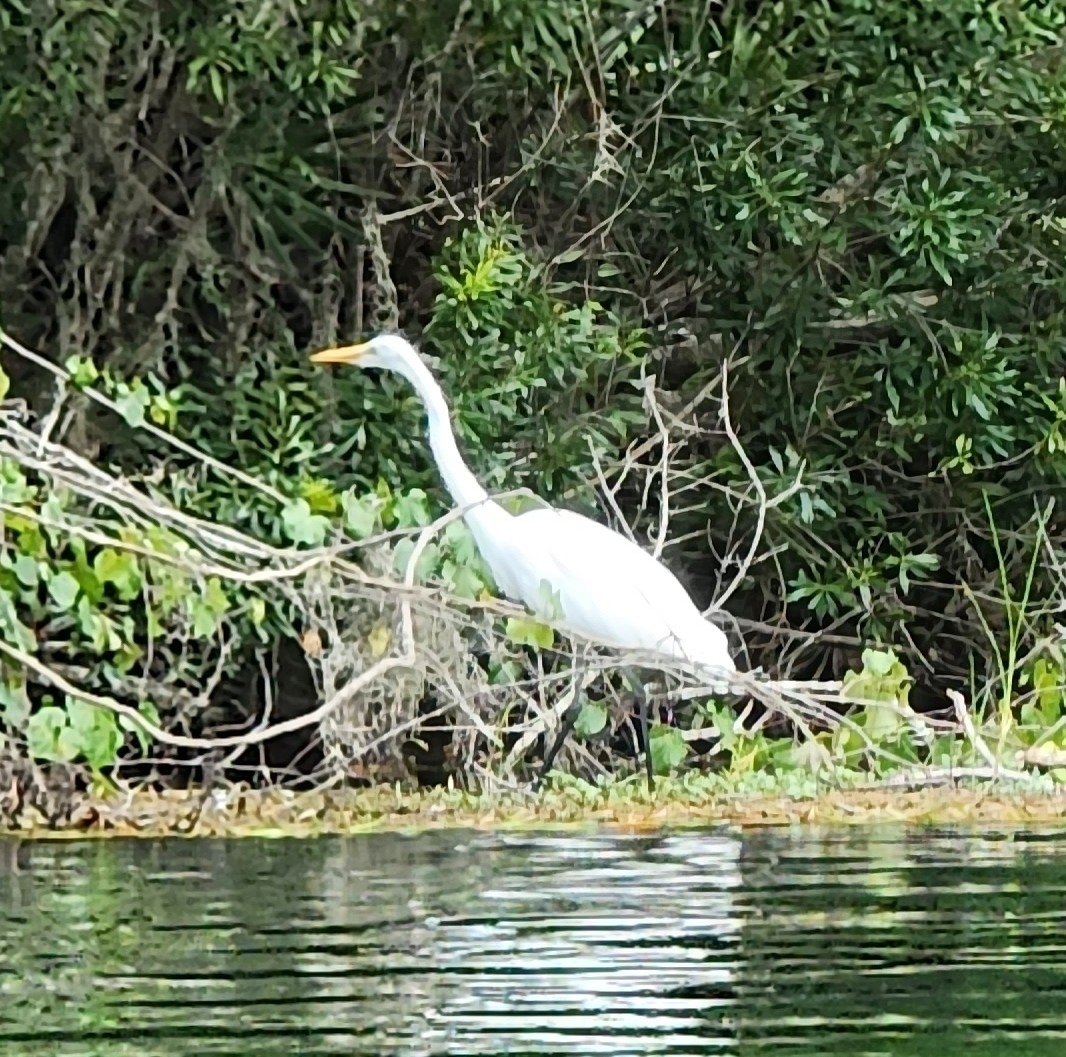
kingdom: Animalia
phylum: Chordata
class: Aves
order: Pelecaniformes
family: Ardeidae
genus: Ardea
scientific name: Ardea alba
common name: Great egret
